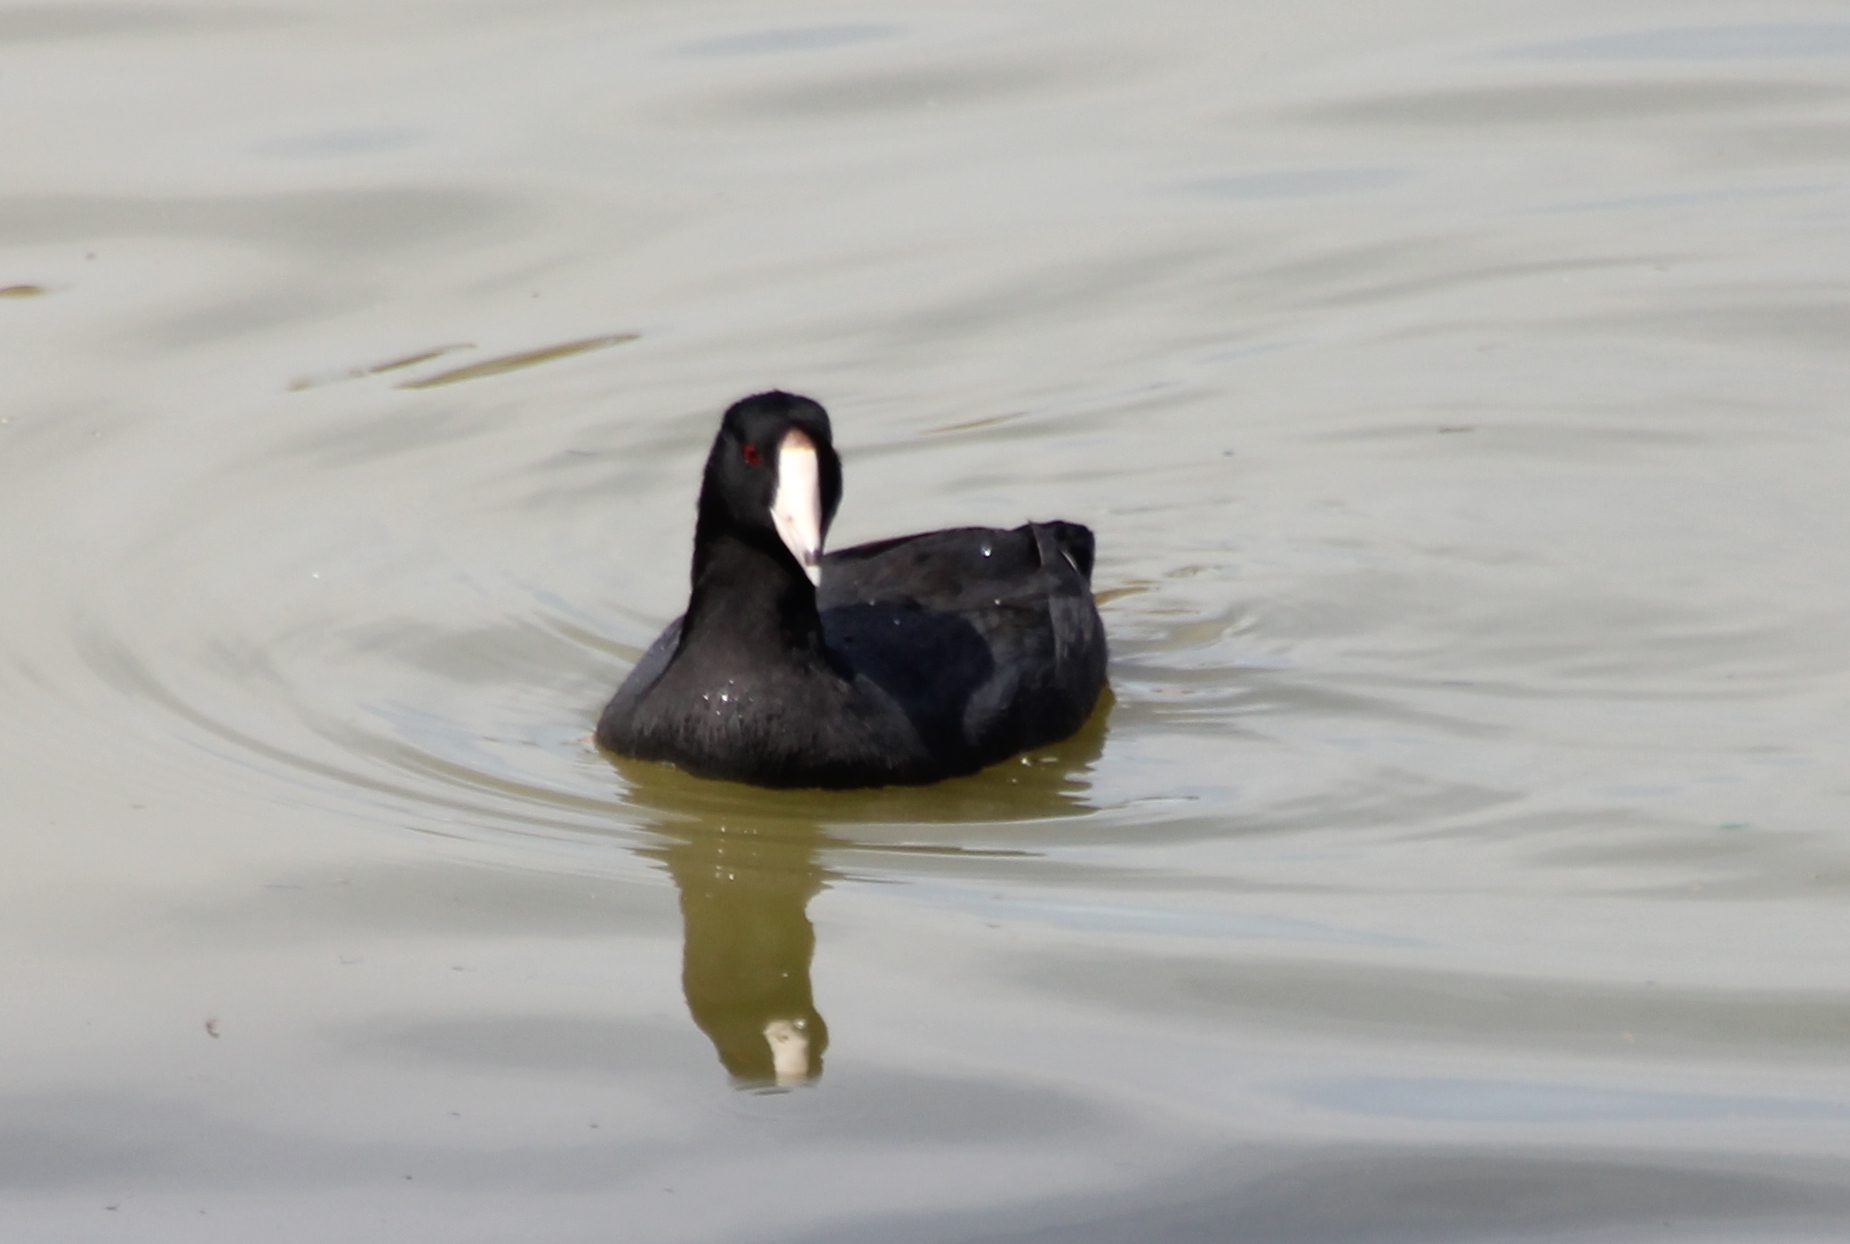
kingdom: Animalia
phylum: Chordata
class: Aves
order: Gruiformes
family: Rallidae
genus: Fulica
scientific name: Fulica americana
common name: American coot
